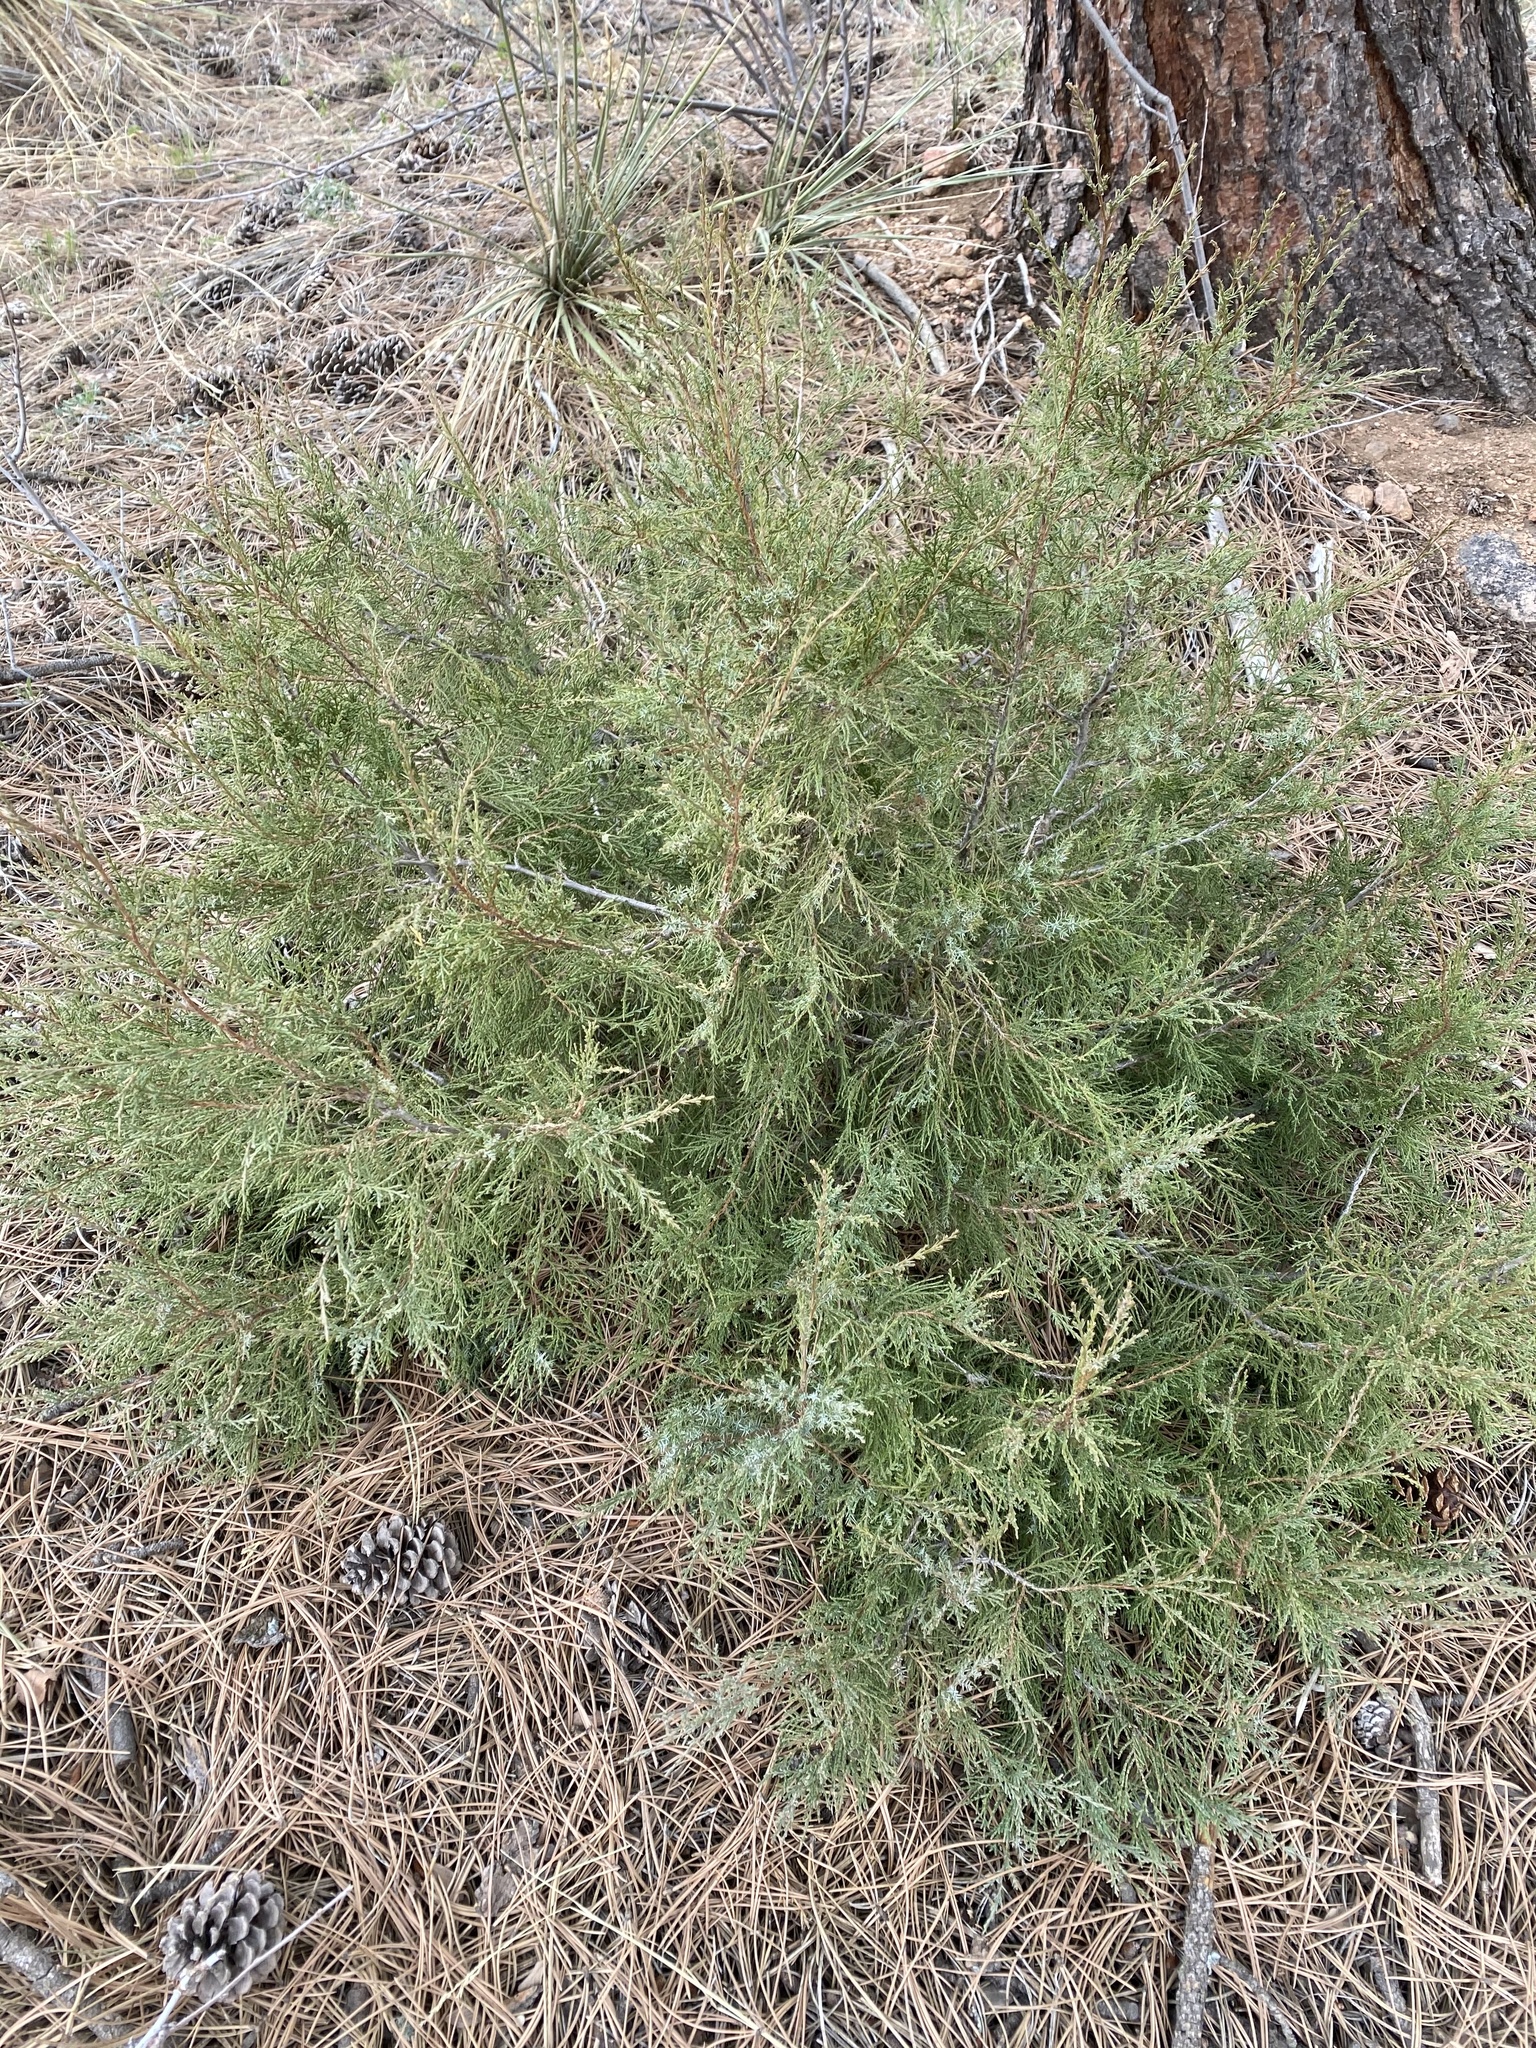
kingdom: Plantae
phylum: Tracheophyta
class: Pinopsida
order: Pinales
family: Cupressaceae
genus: Juniperus
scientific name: Juniperus scopulorum
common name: Rocky mountain juniper
